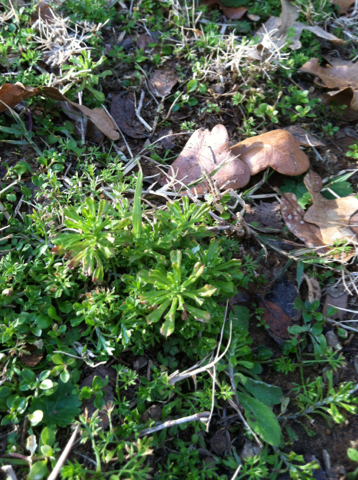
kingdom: Plantae
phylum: Tracheophyta
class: Magnoliopsida
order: Asterales
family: Asteraceae
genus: Facelis
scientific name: Facelis retusa
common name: Annual trampweed
